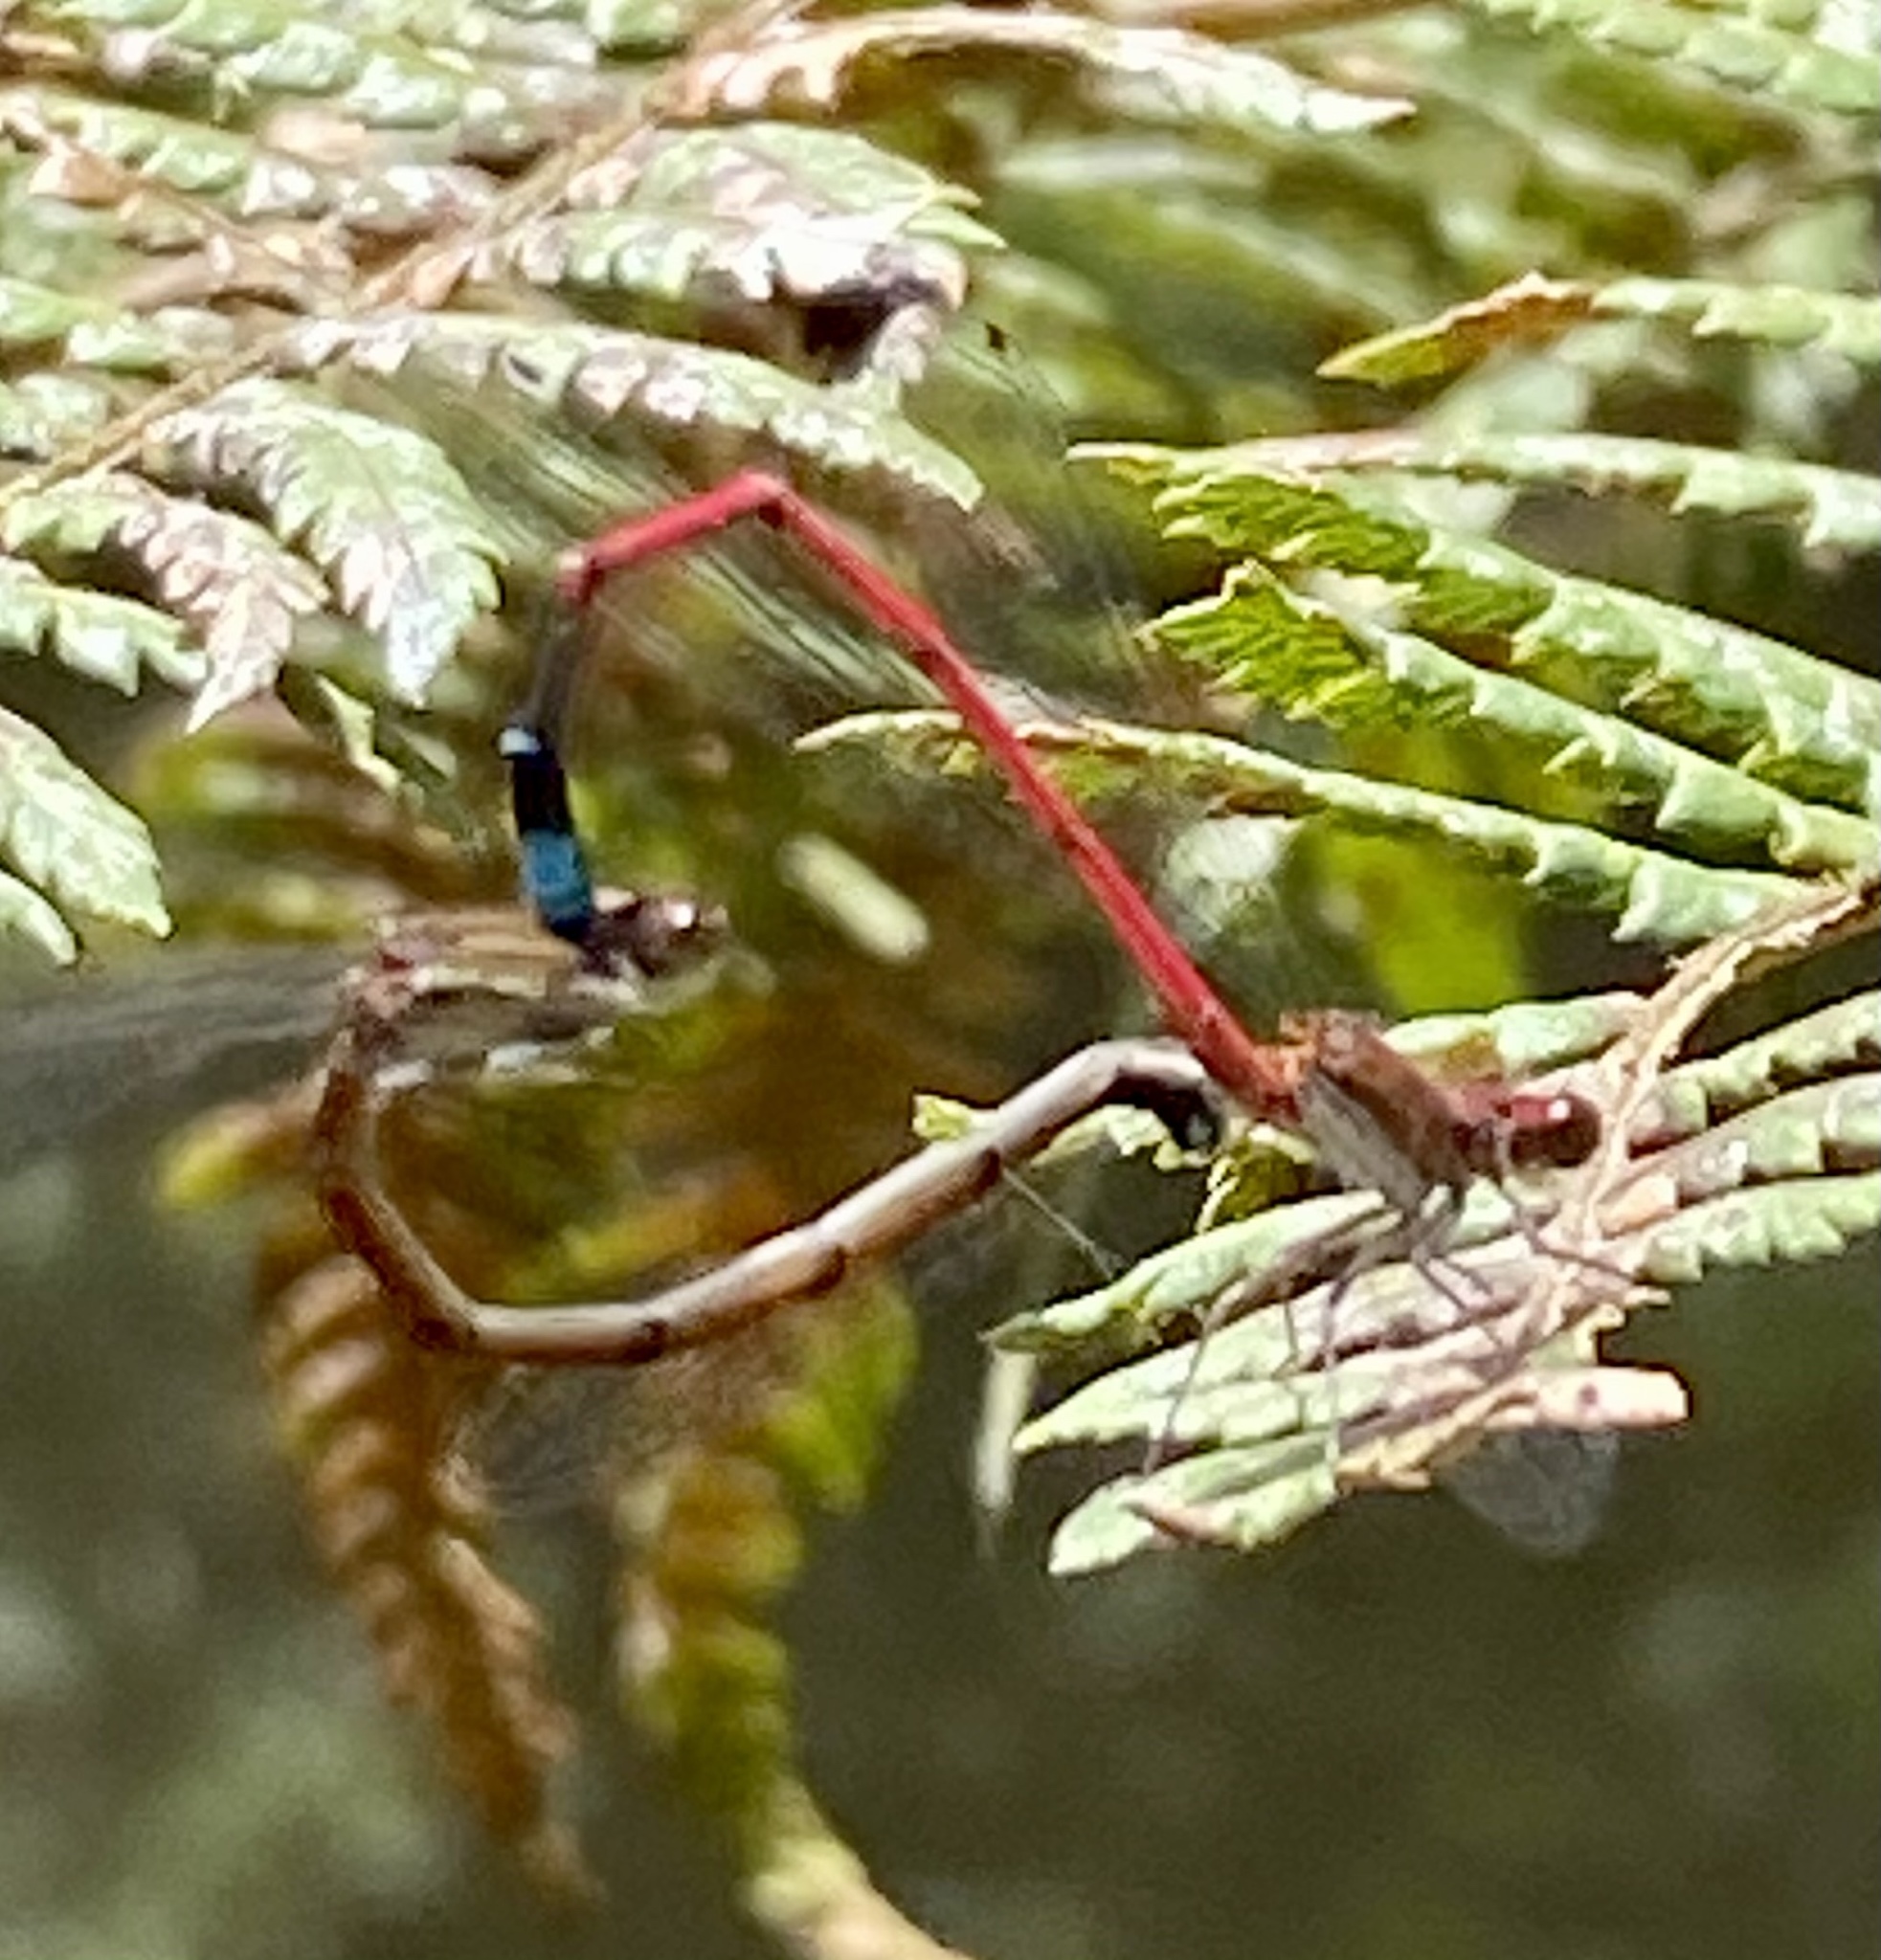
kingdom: Animalia
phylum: Arthropoda
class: Insecta
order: Odonata
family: Coenagrionidae
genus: Oxyagrion
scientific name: Oxyagrion simile
